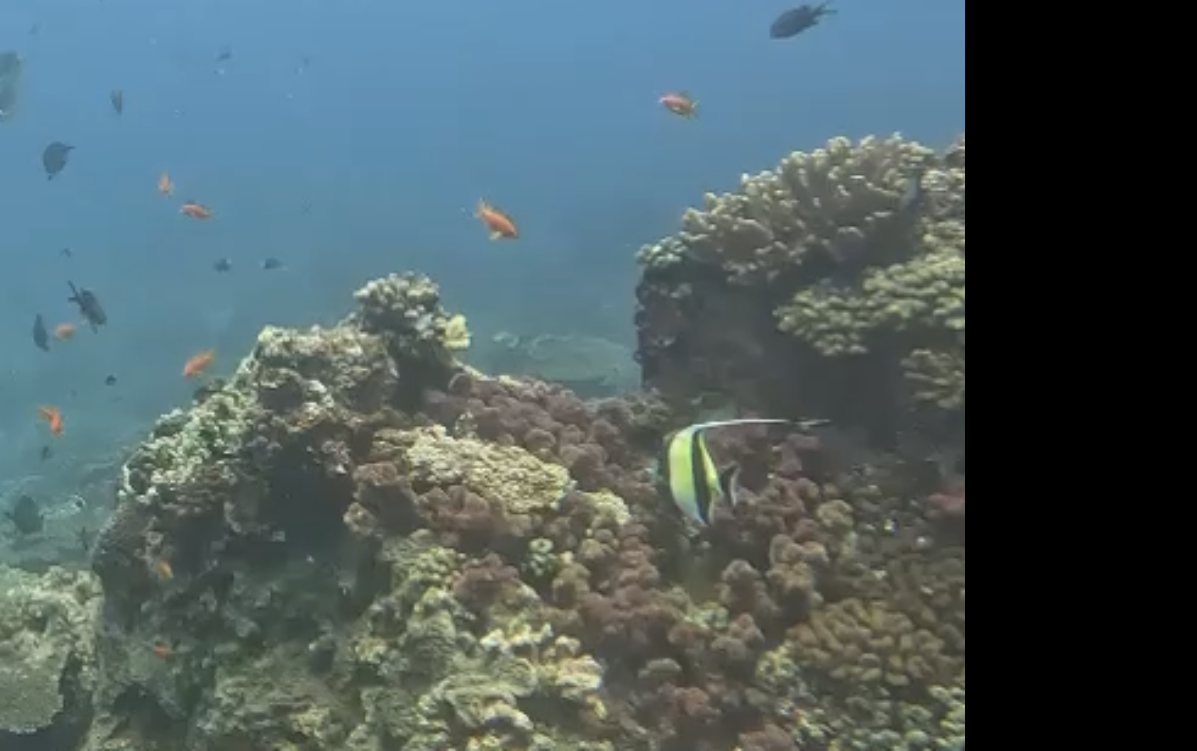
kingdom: Animalia
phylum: Chordata
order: Perciformes
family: Zanclidae
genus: Zanclus
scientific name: Zanclus cornutus
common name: Moorish idol
